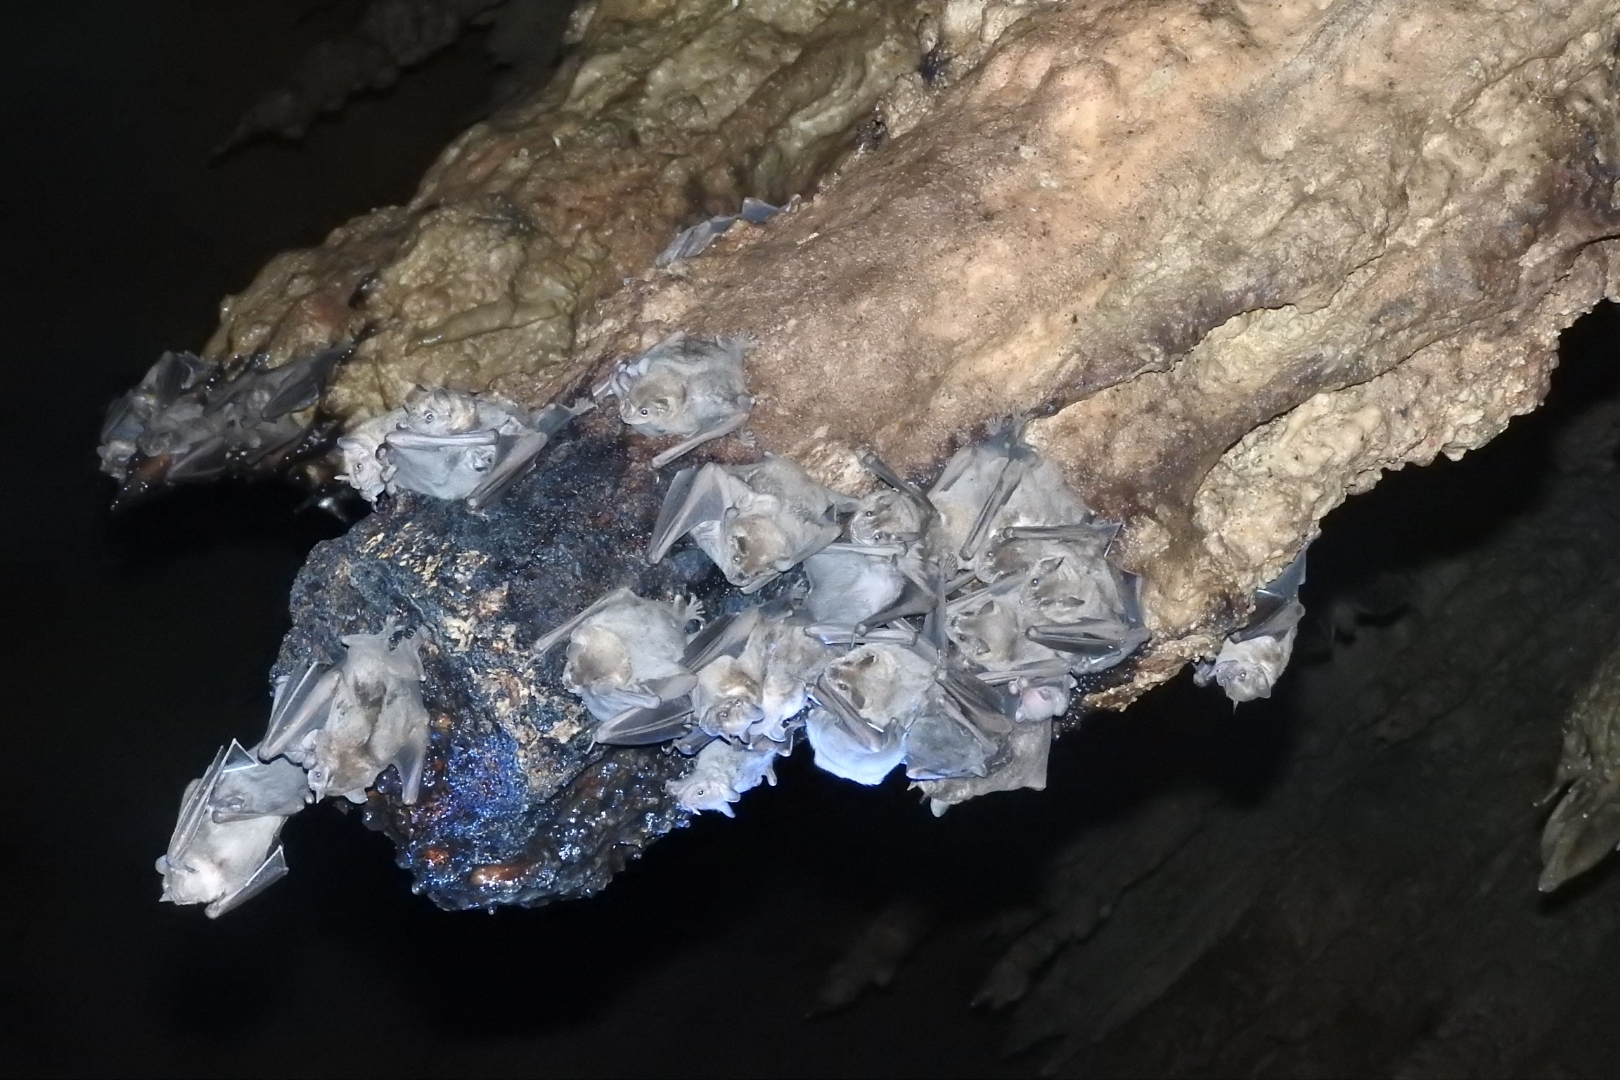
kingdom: Animalia
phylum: Chordata
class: Mammalia
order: Chiroptera
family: Phyllostomidae
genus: Artibeus
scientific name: Artibeus jamaicensis
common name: Jamaican fruit-eating bat
